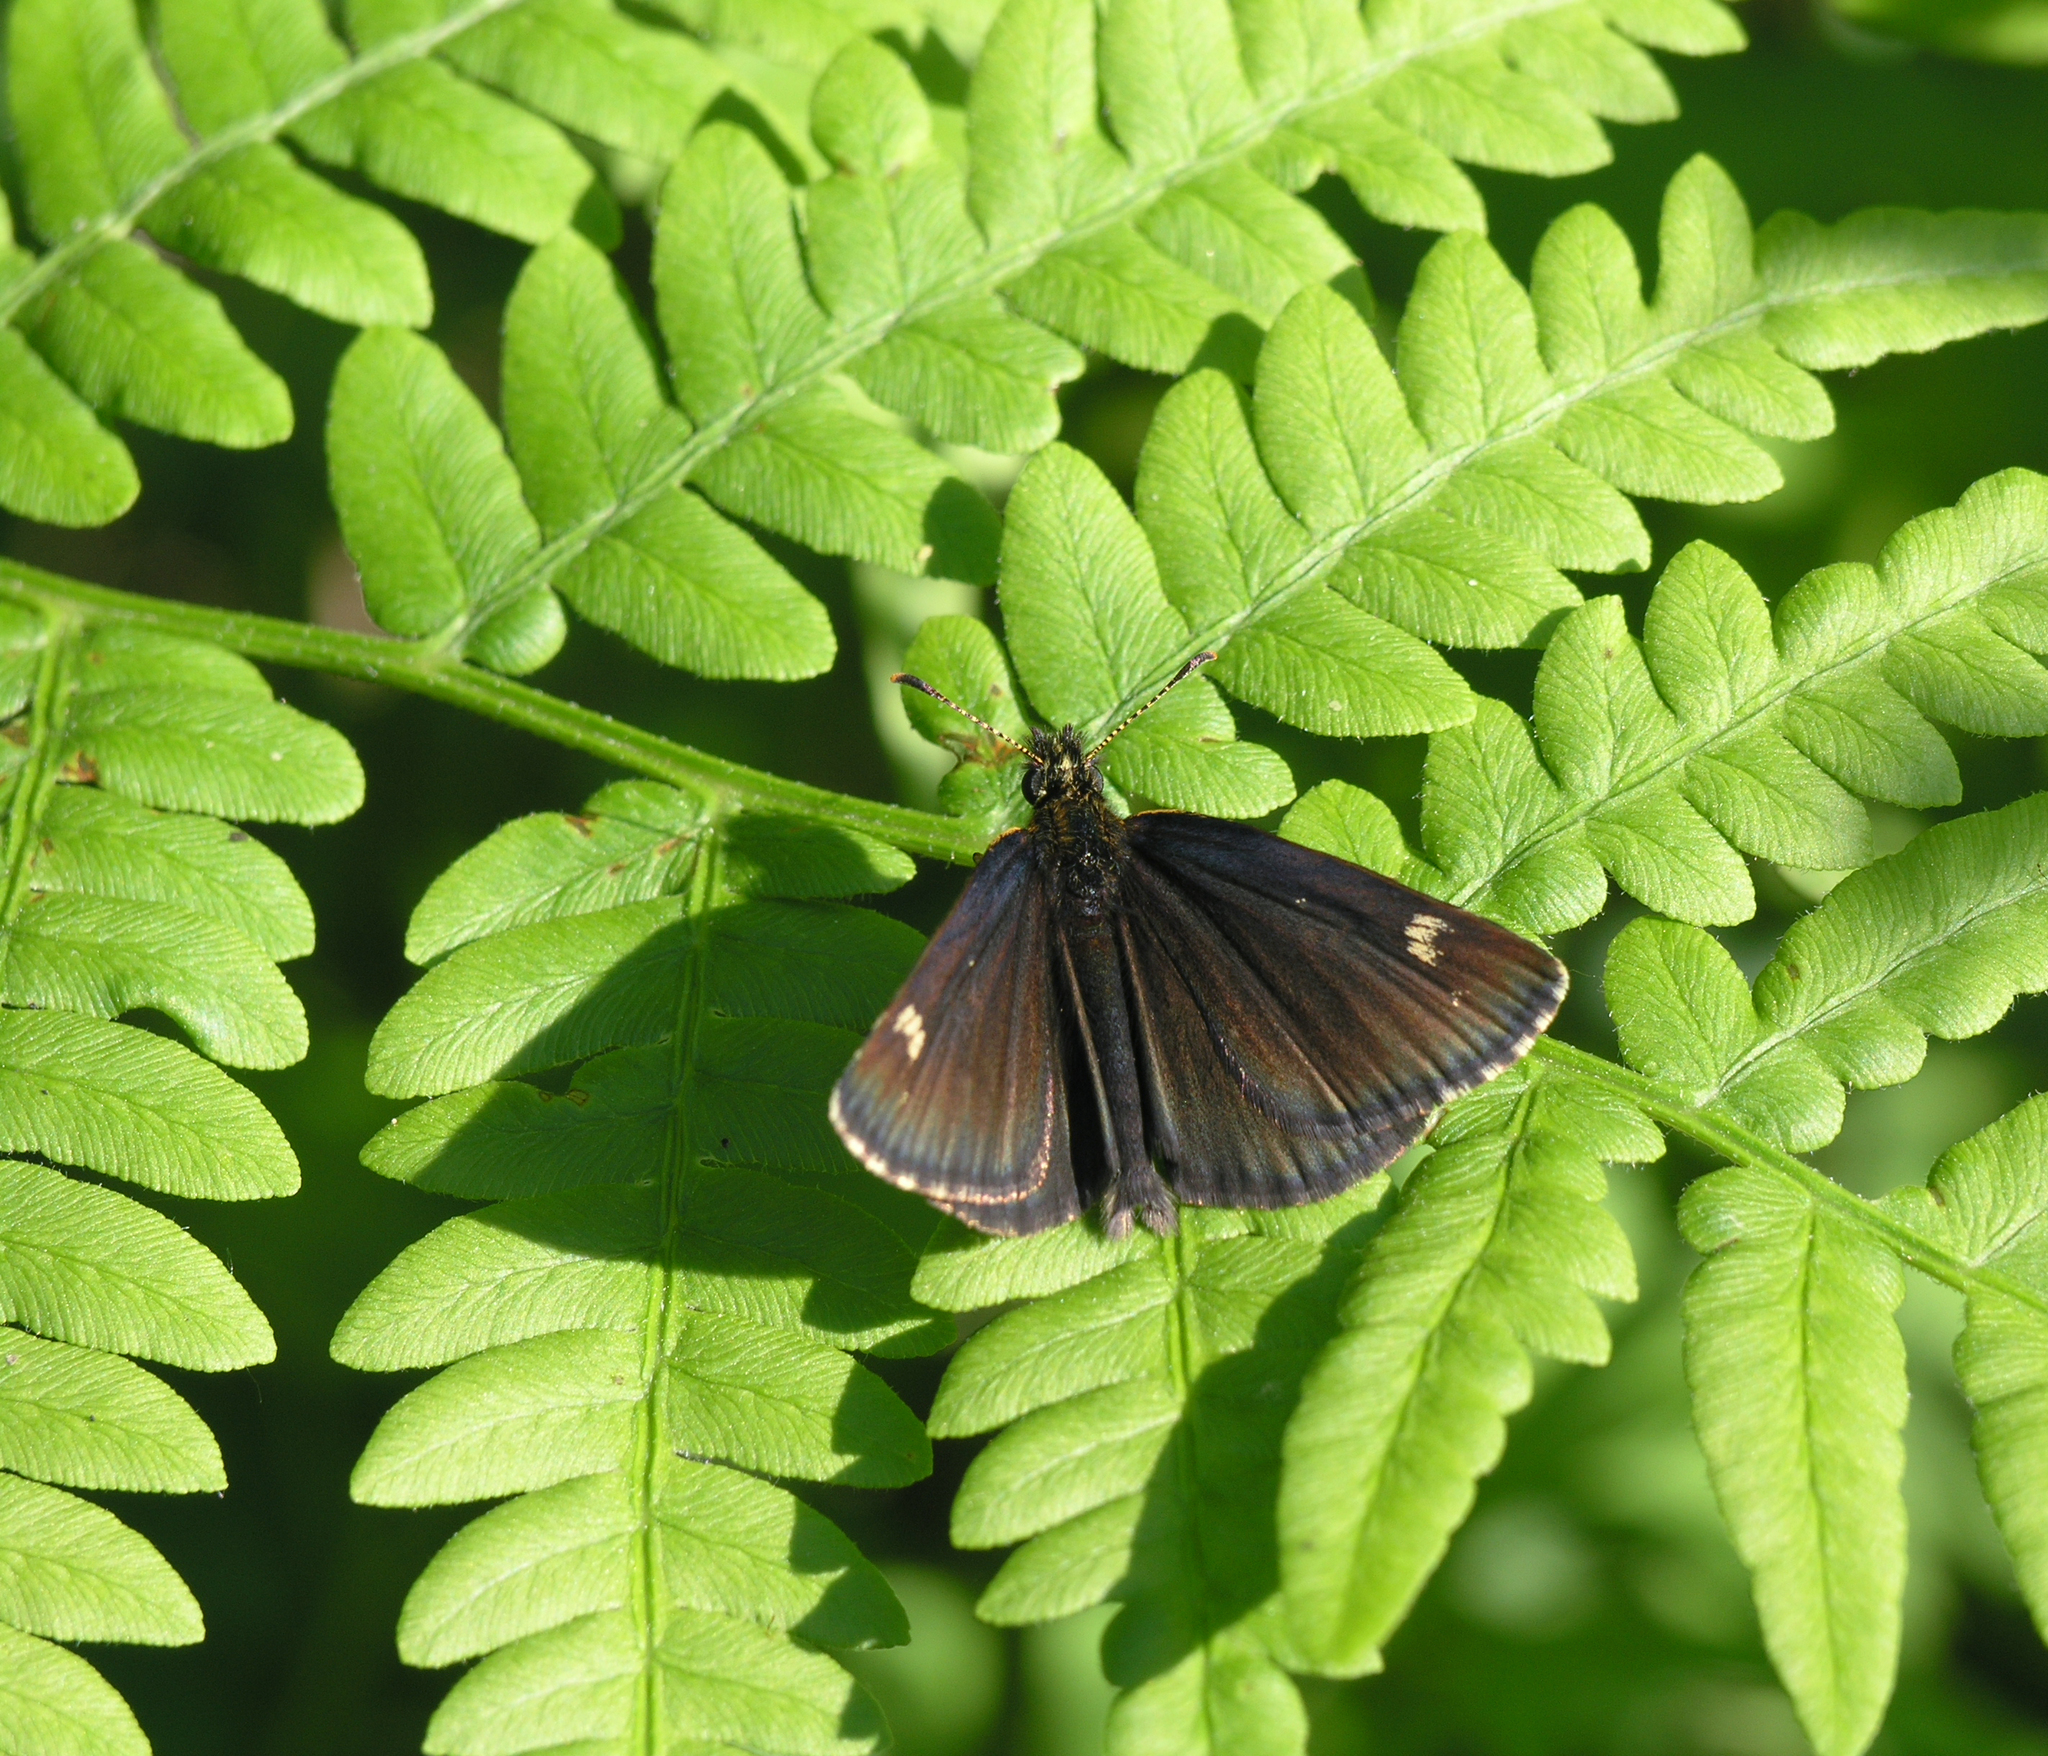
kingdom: Animalia
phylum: Arthropoda
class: Insecta
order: Lepidoptera
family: Hesperiidae
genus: Heteropterus
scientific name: Heteropterus morpheus
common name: Large chequered skipper
